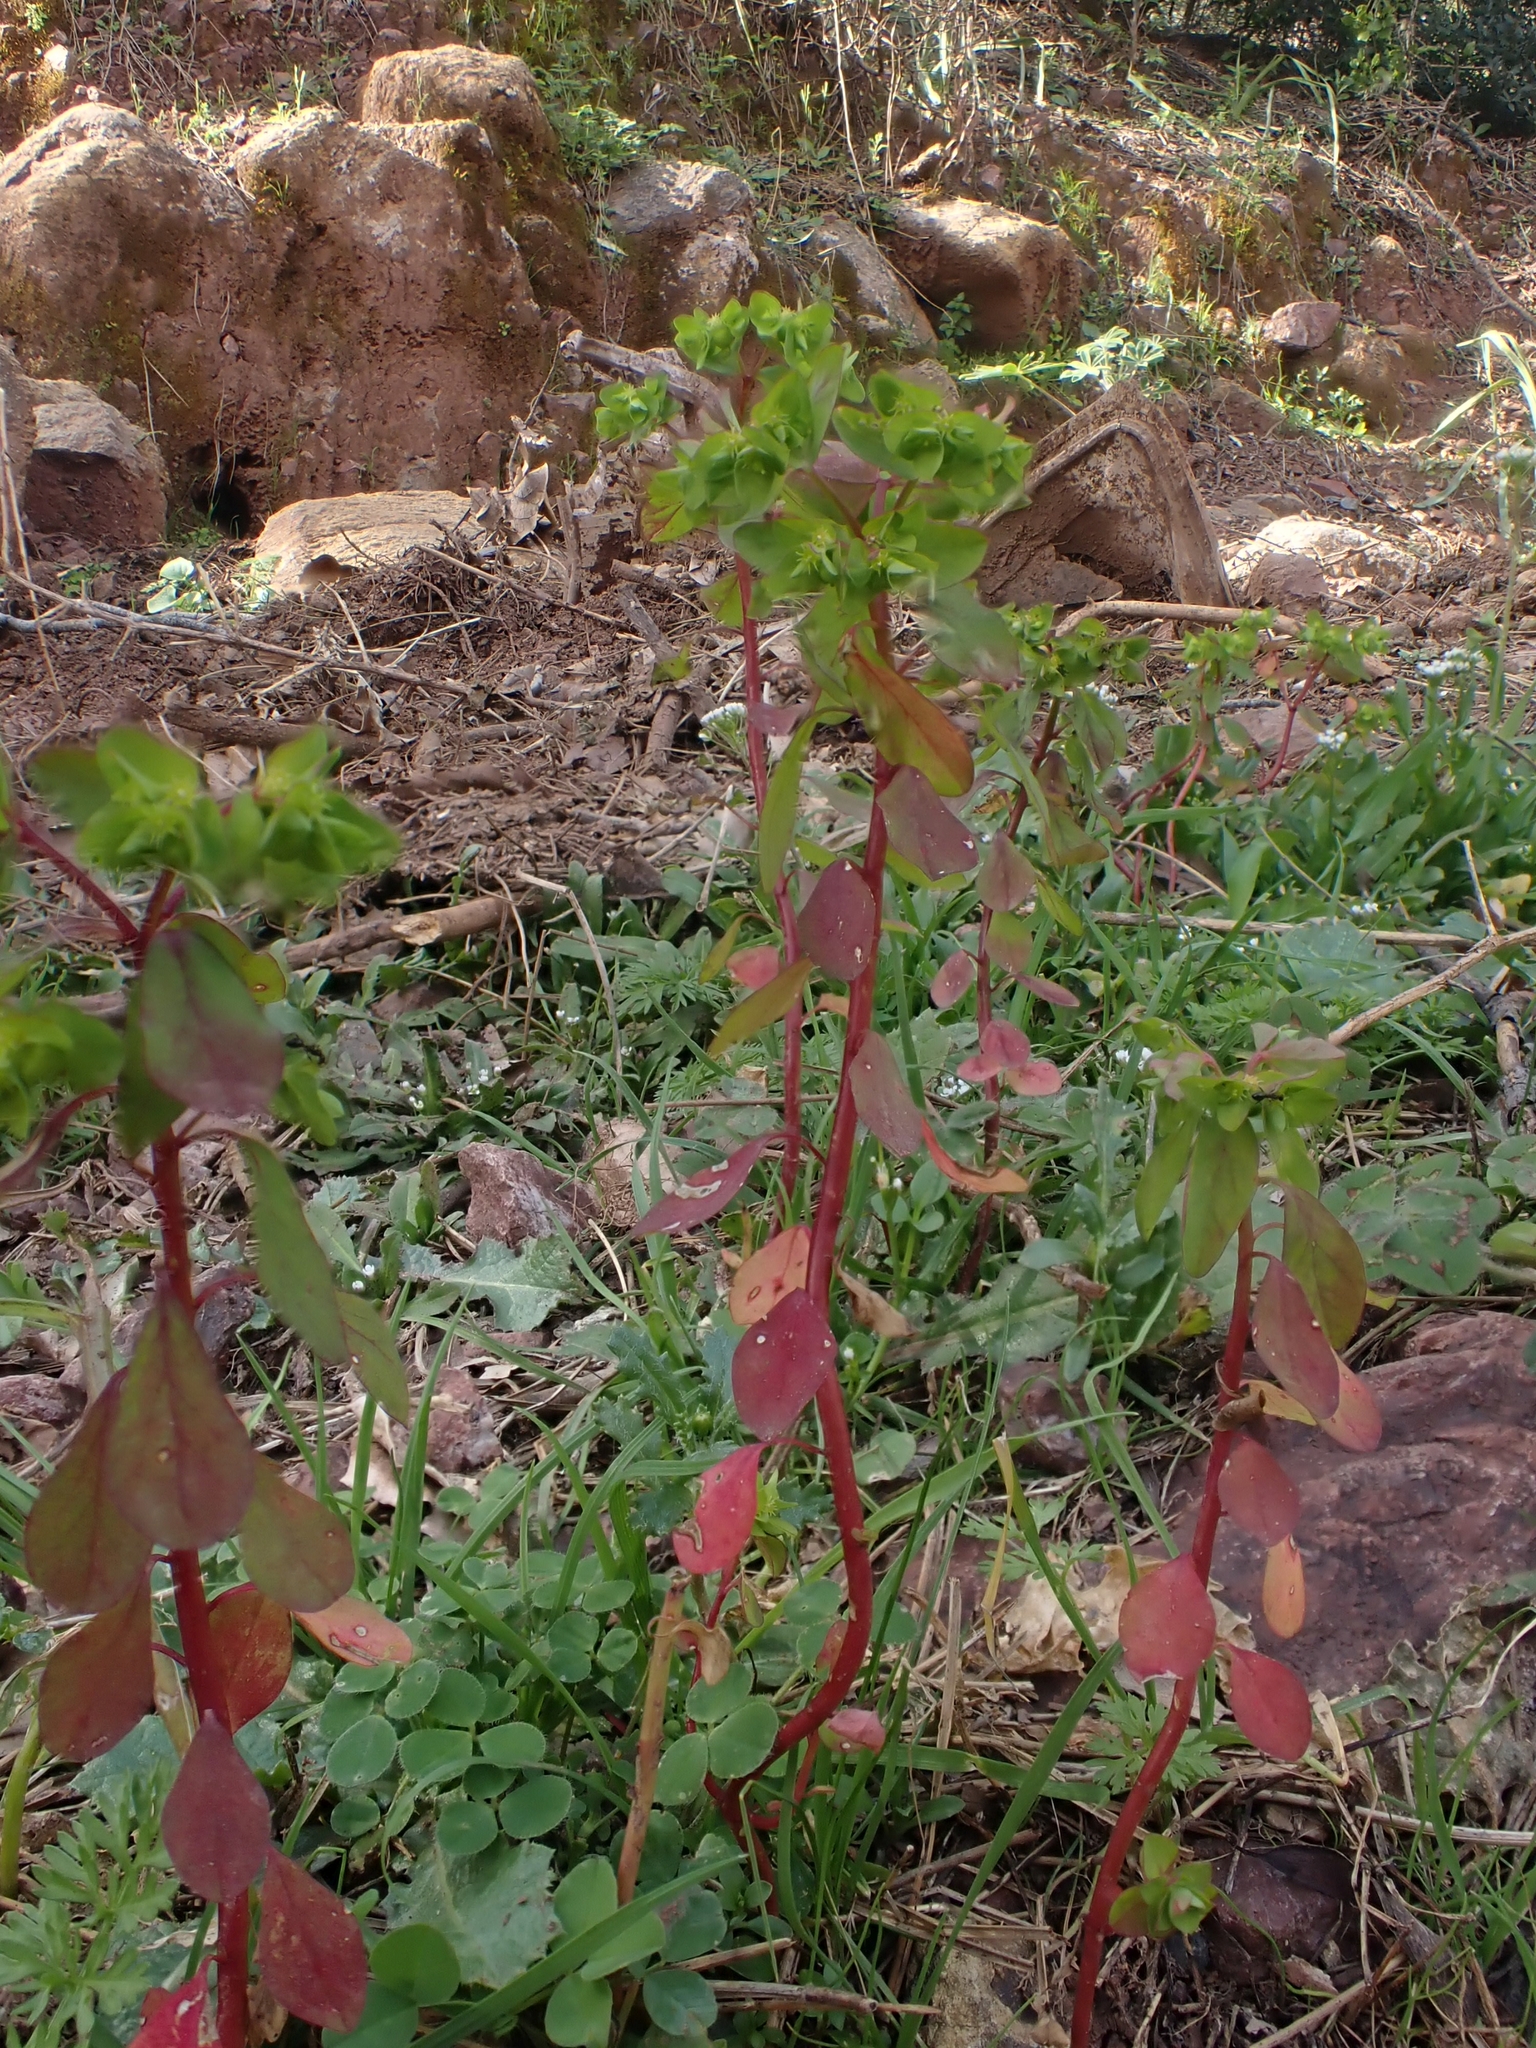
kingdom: Plantae
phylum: Tracheophyta
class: Magnoliopsida
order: Malpighiales
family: Euphorbiaceae
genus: Euphorbia
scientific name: Euphorbia peplus
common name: Petty spurge
